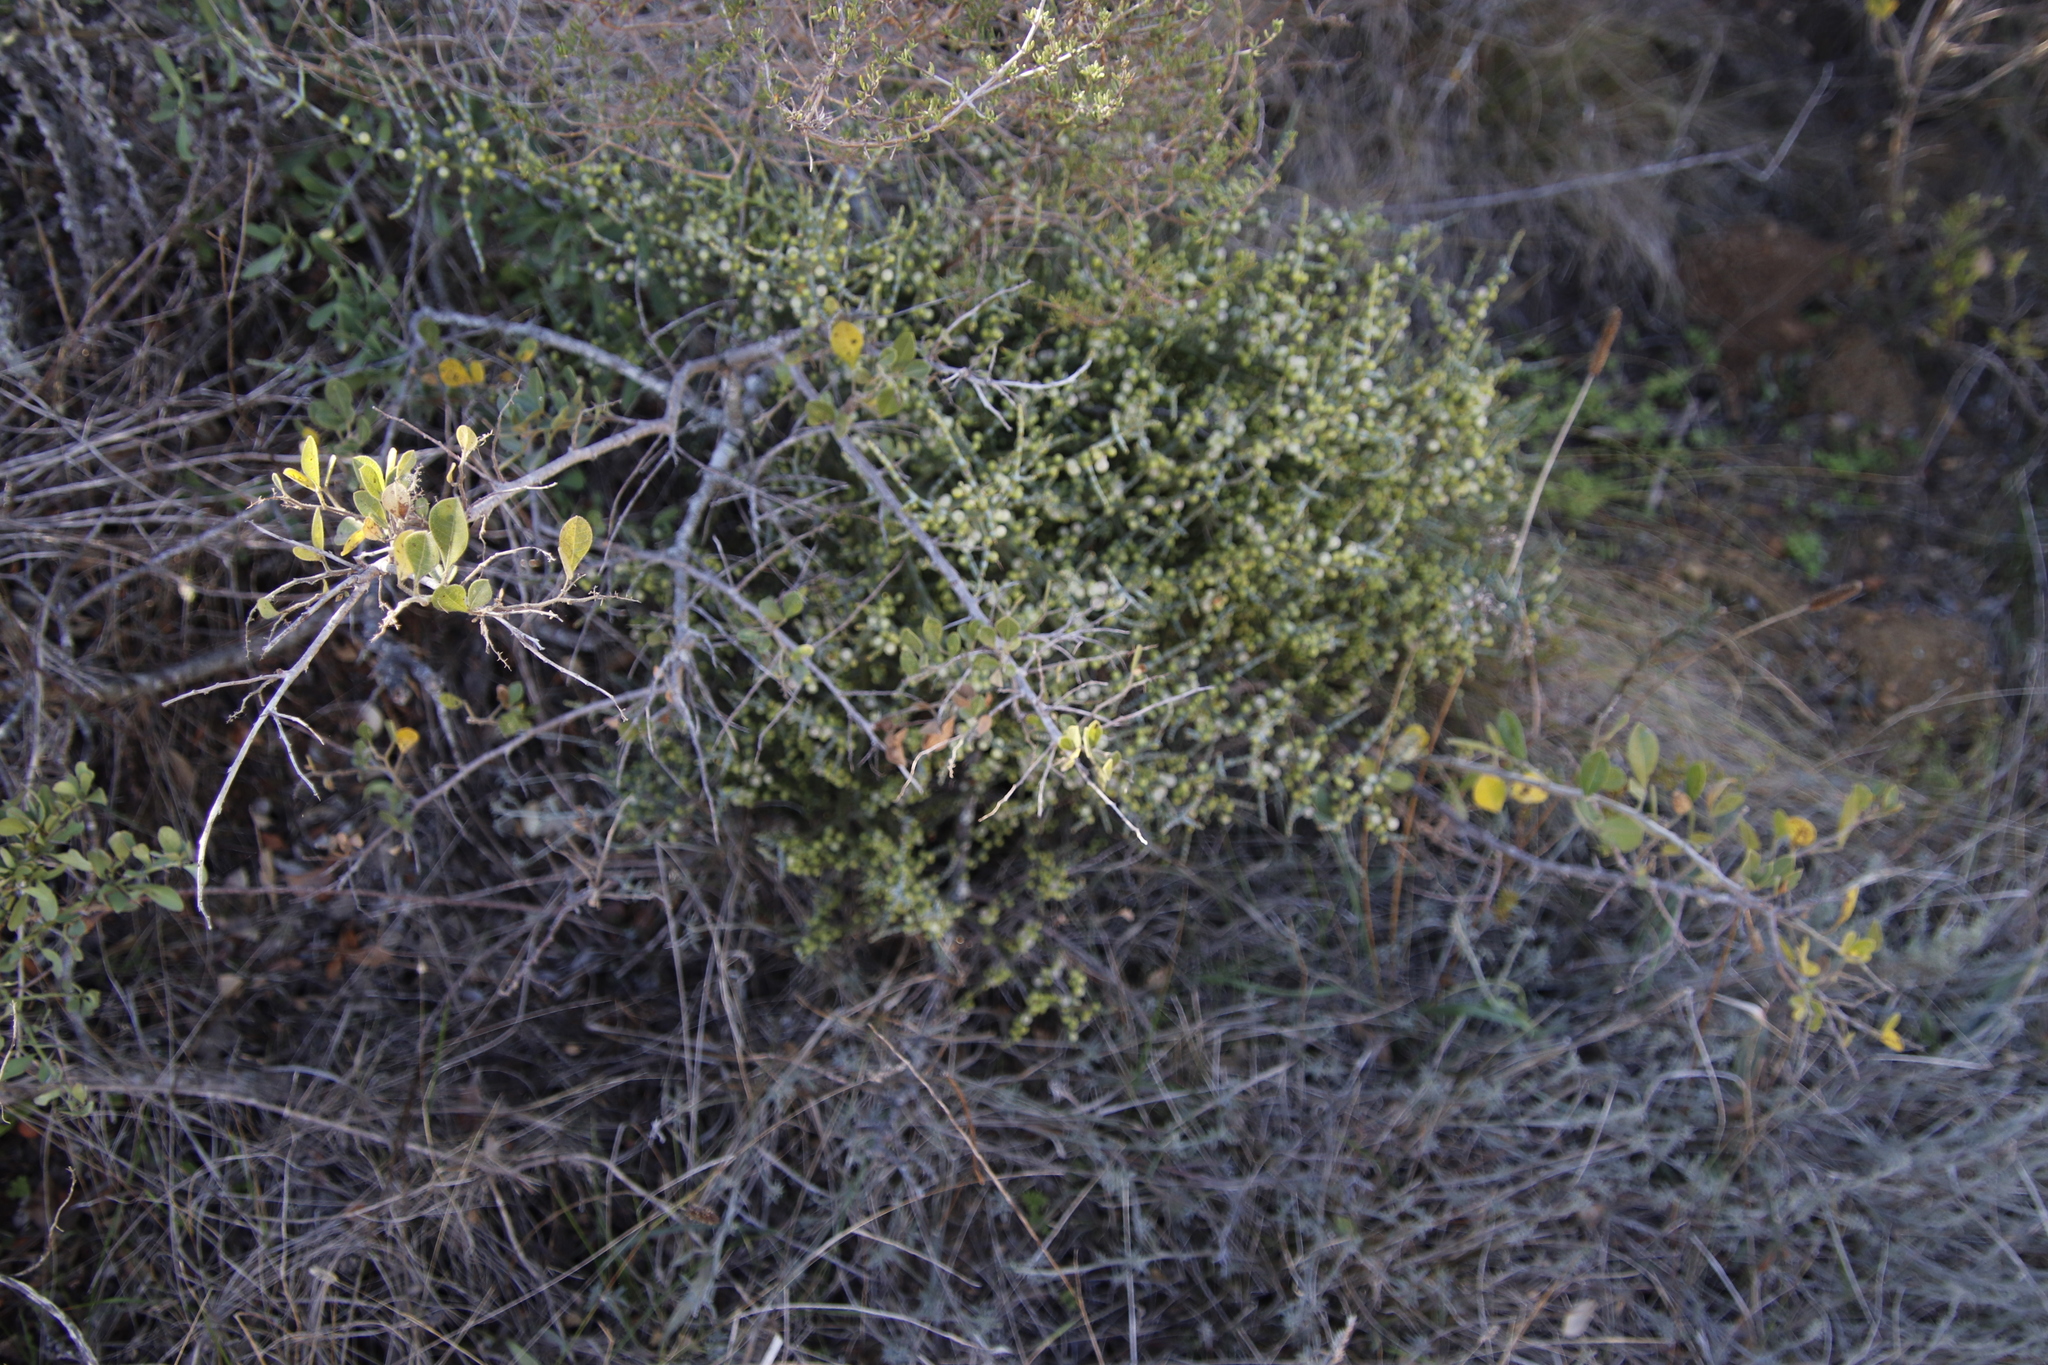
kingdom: Plantae
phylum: Tracheophyta
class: Magnoliopsida
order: Santalales
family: Viscaceae
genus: Viscum
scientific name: Viscum capense
